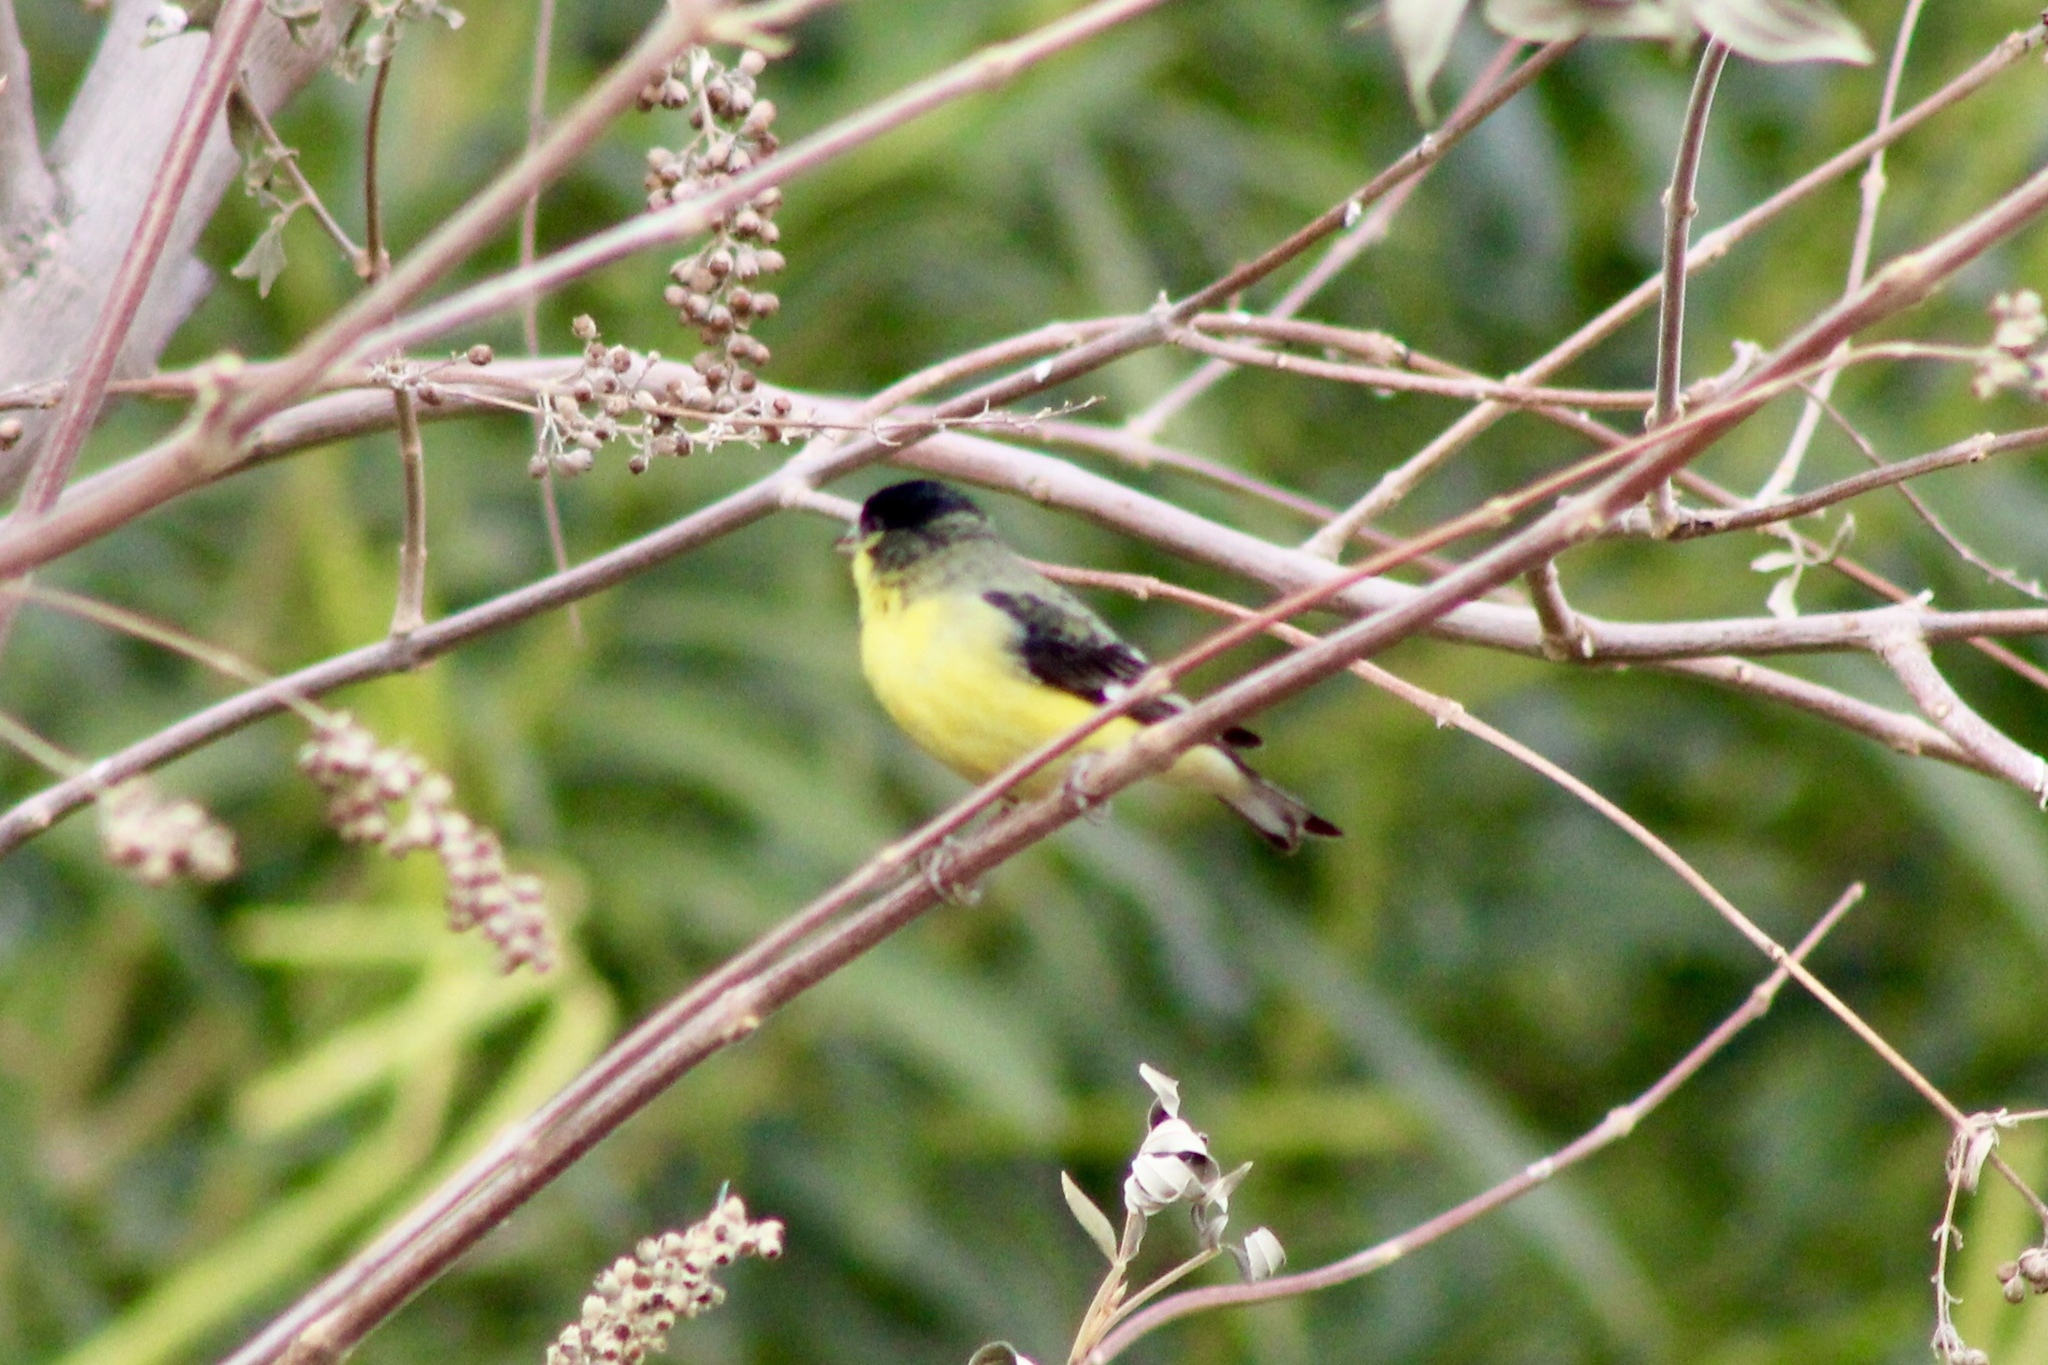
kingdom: Animalia
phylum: Chordata
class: Aves
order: Passeriformes
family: Fringillidae
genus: Spinus
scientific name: Spinus psaltria
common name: Lesser goldfinch
